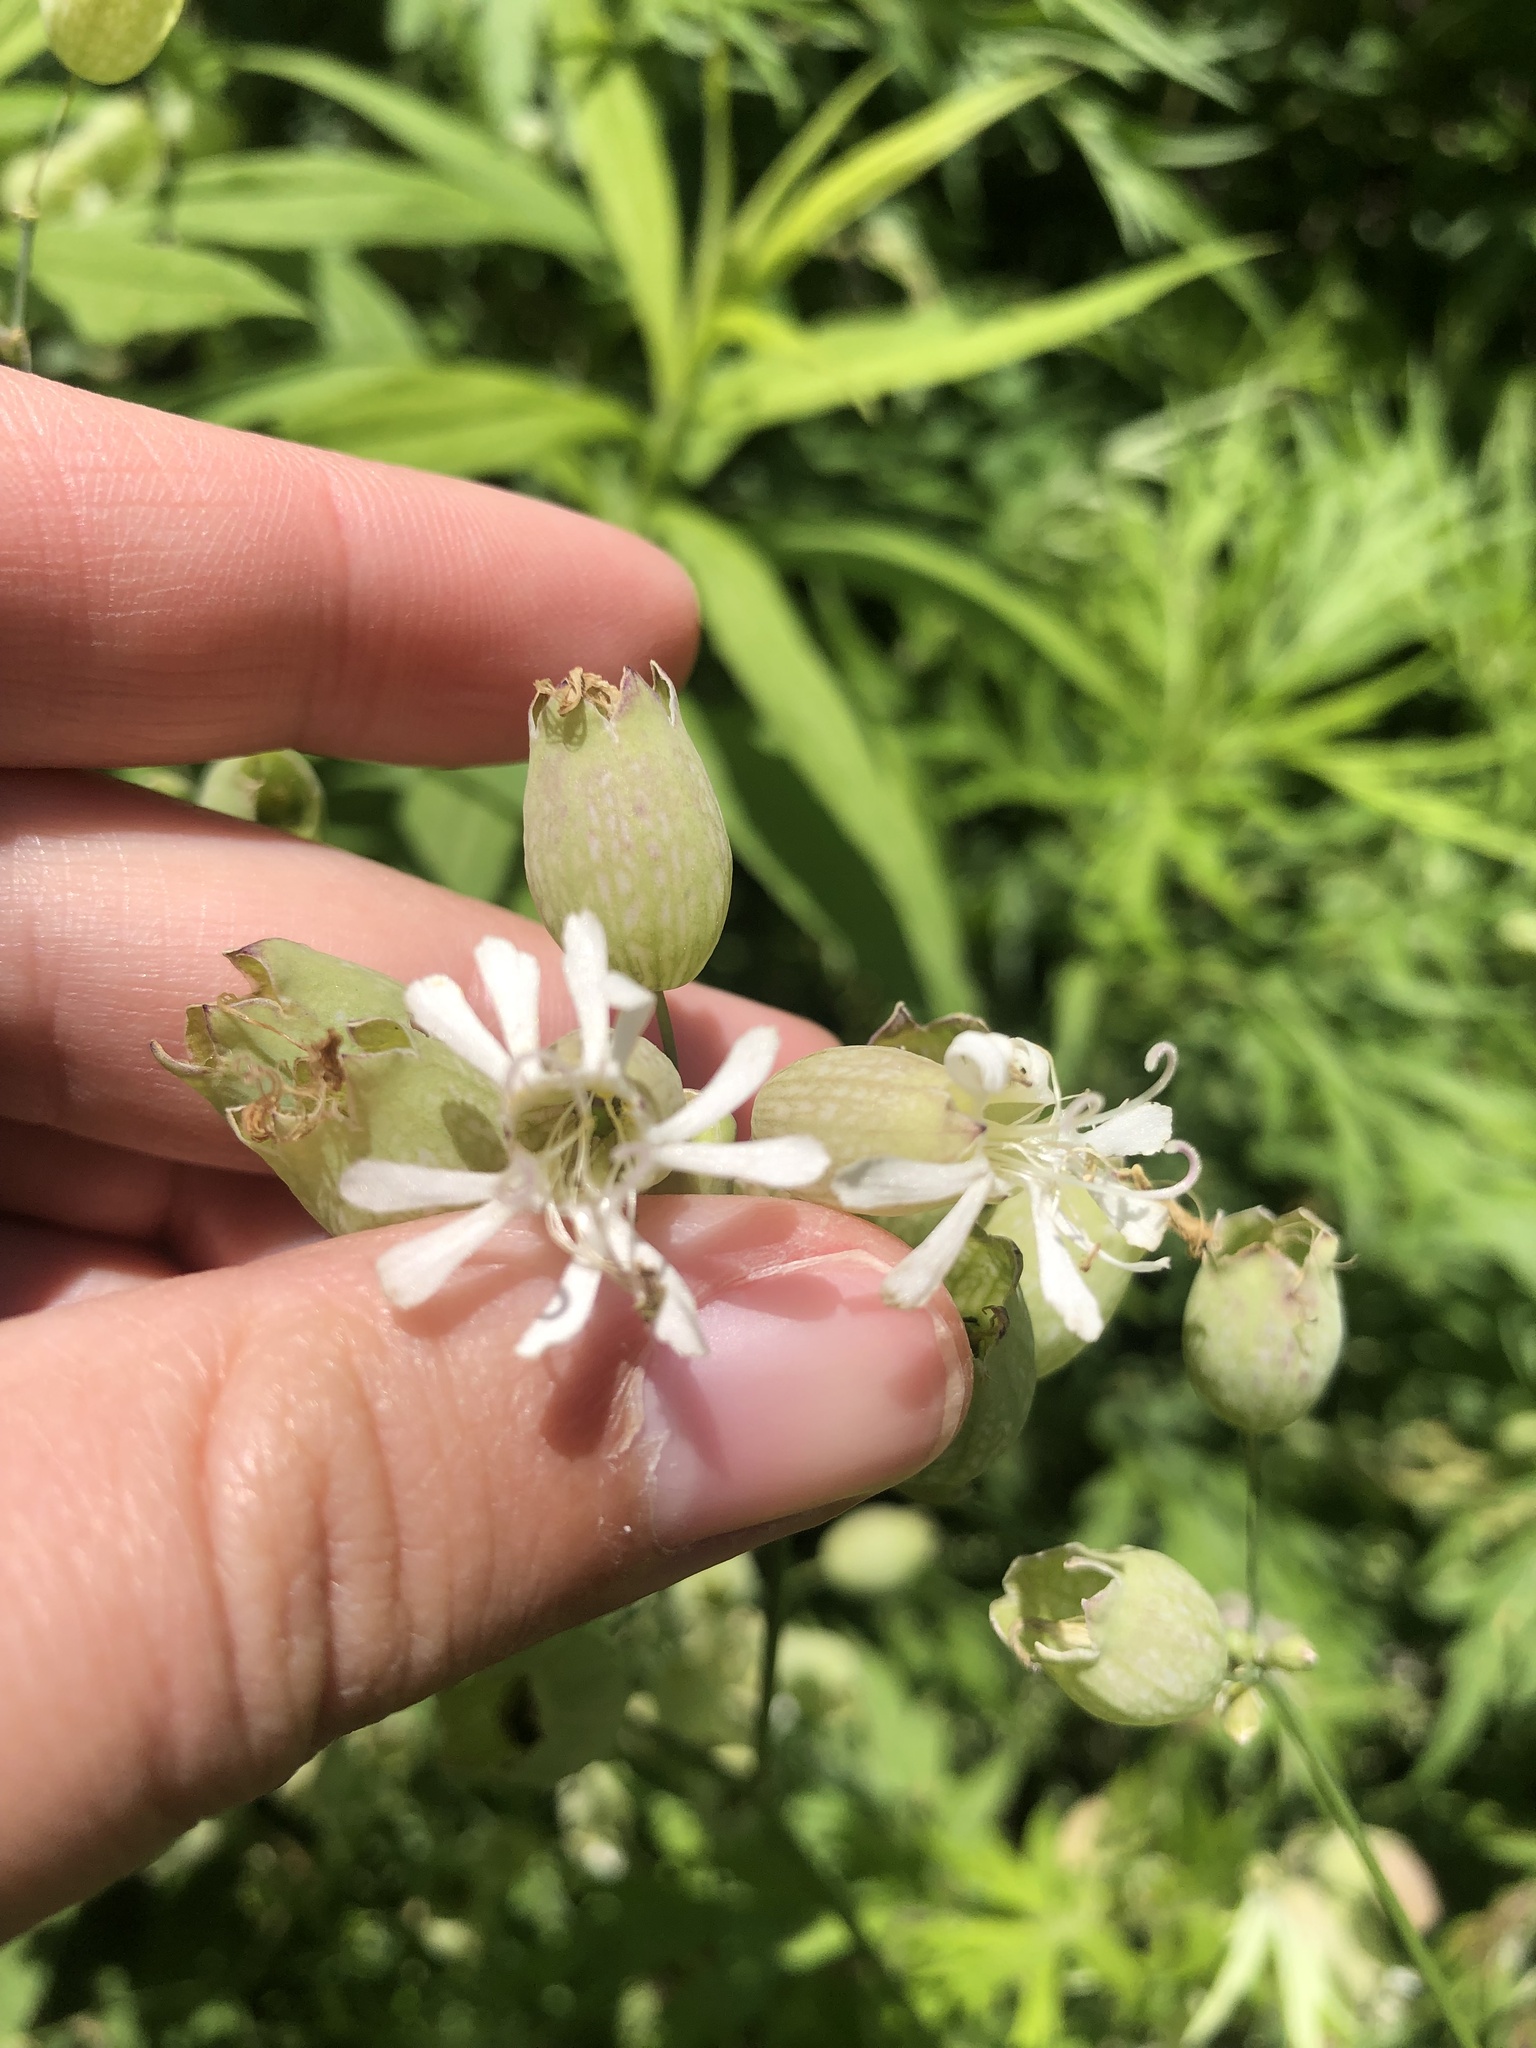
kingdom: Plantae
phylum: Tracheophyta
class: Magnoliopsida
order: Caryophyllales
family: Caryophyllaceae
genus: Silene
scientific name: Silene vulgaris
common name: Bladder campion
